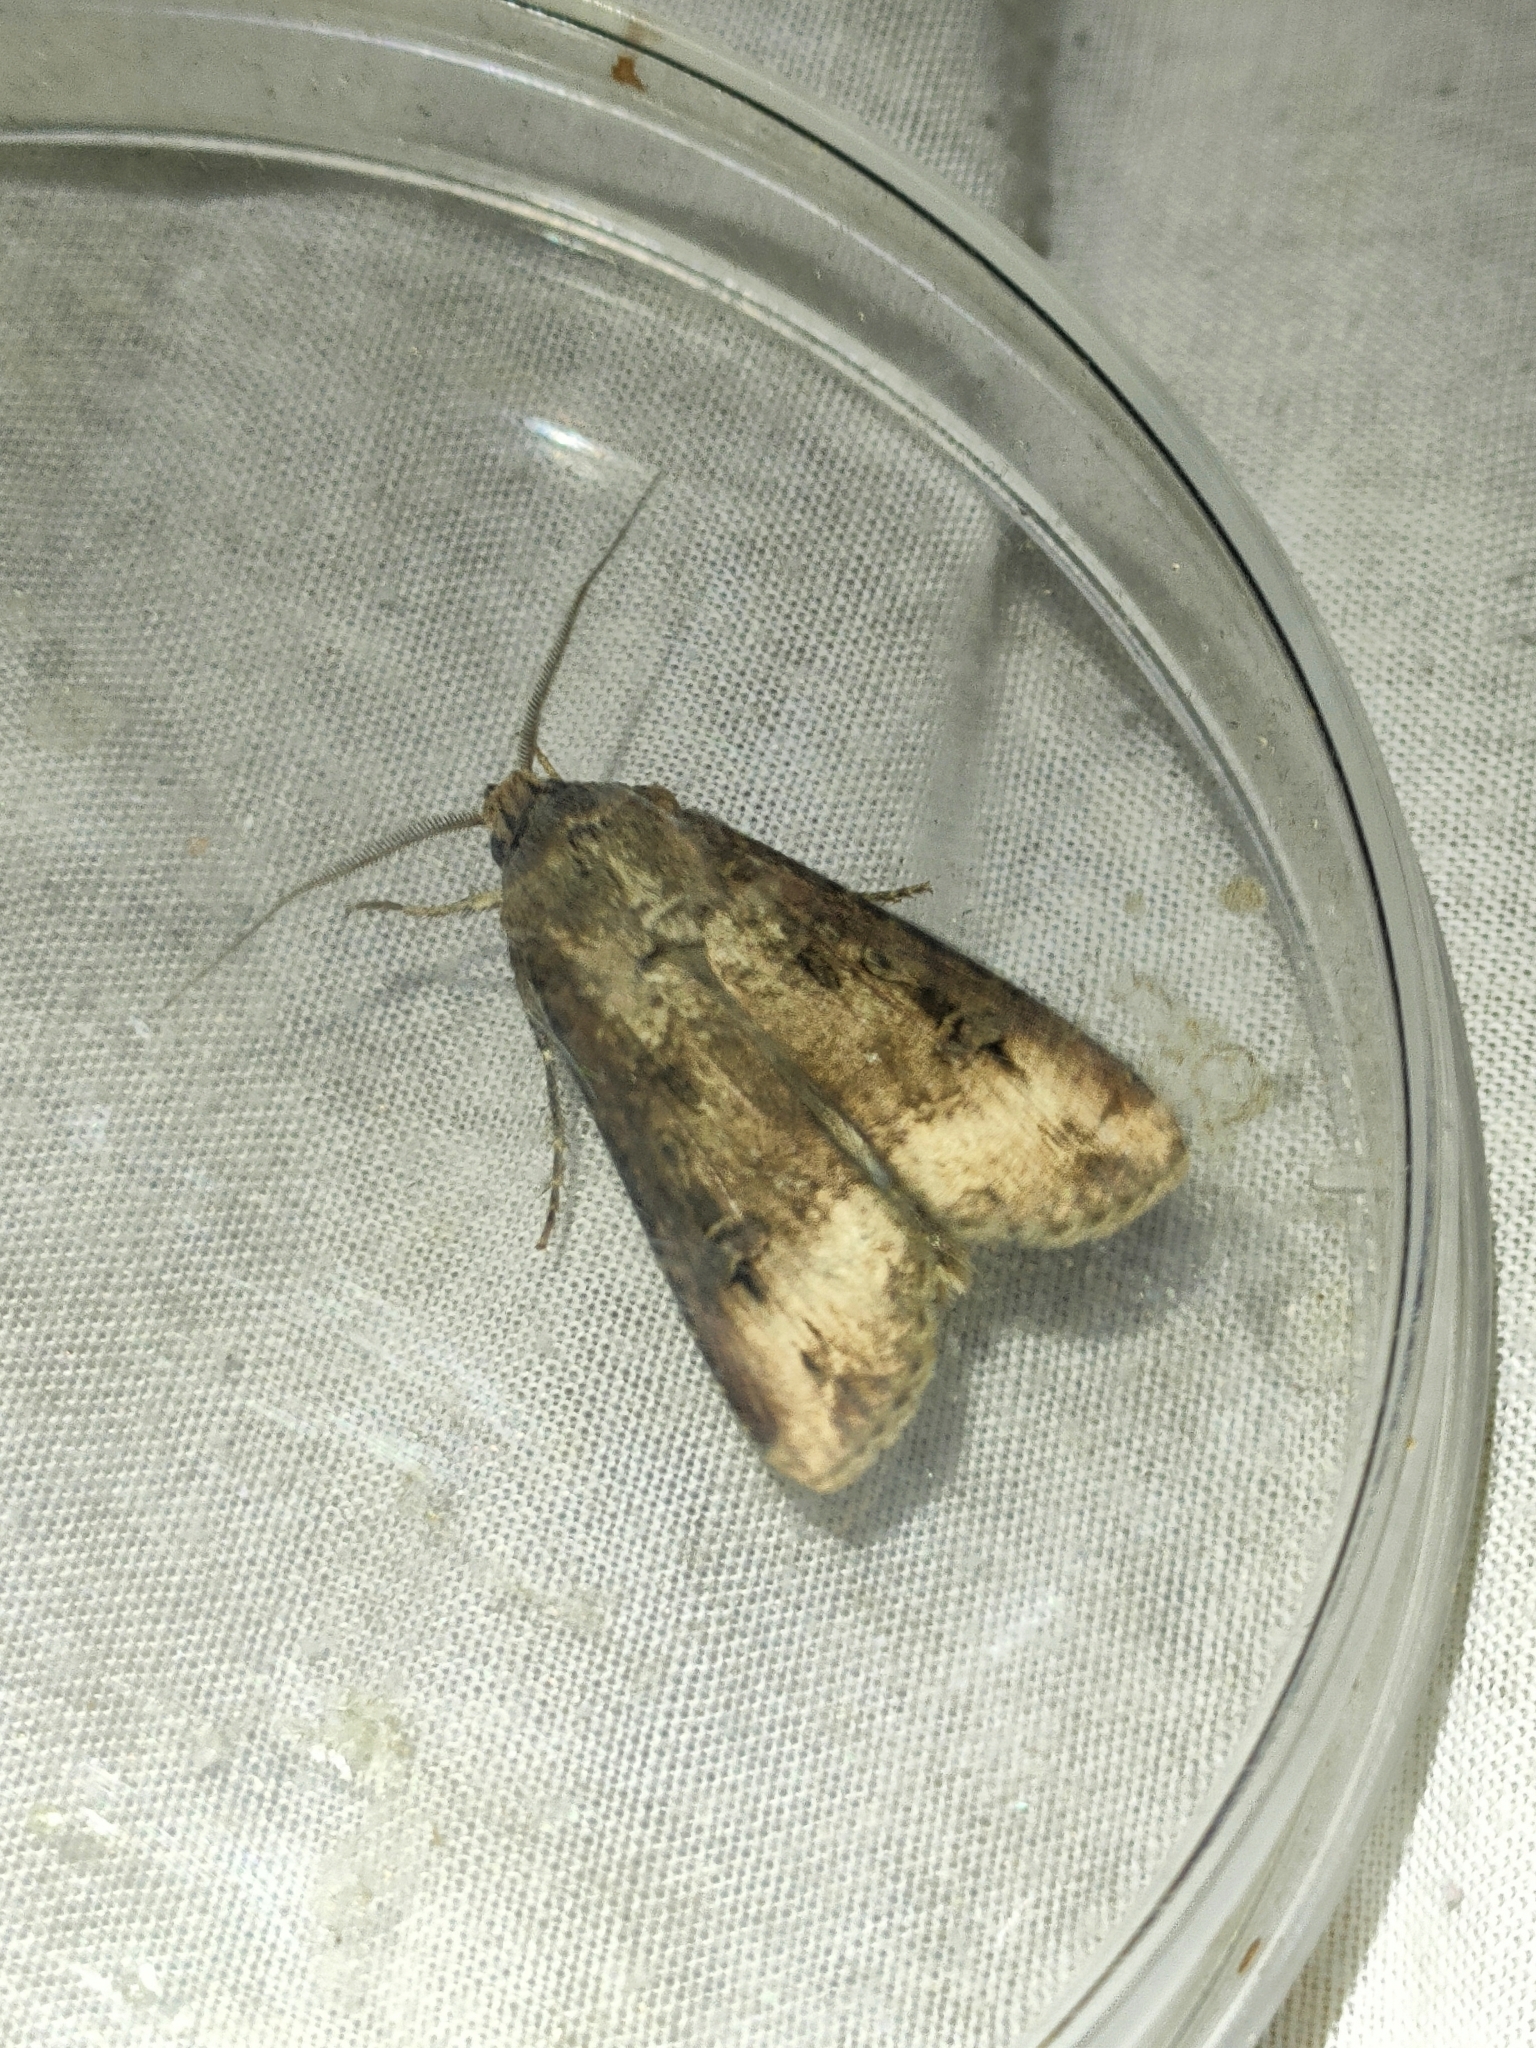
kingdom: Animalia
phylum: Arthropoda
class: Insecta
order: Lepidoptera
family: Noctuidae
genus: Agrotis
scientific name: Agrotis ipsilon
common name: Dark sword-grass
